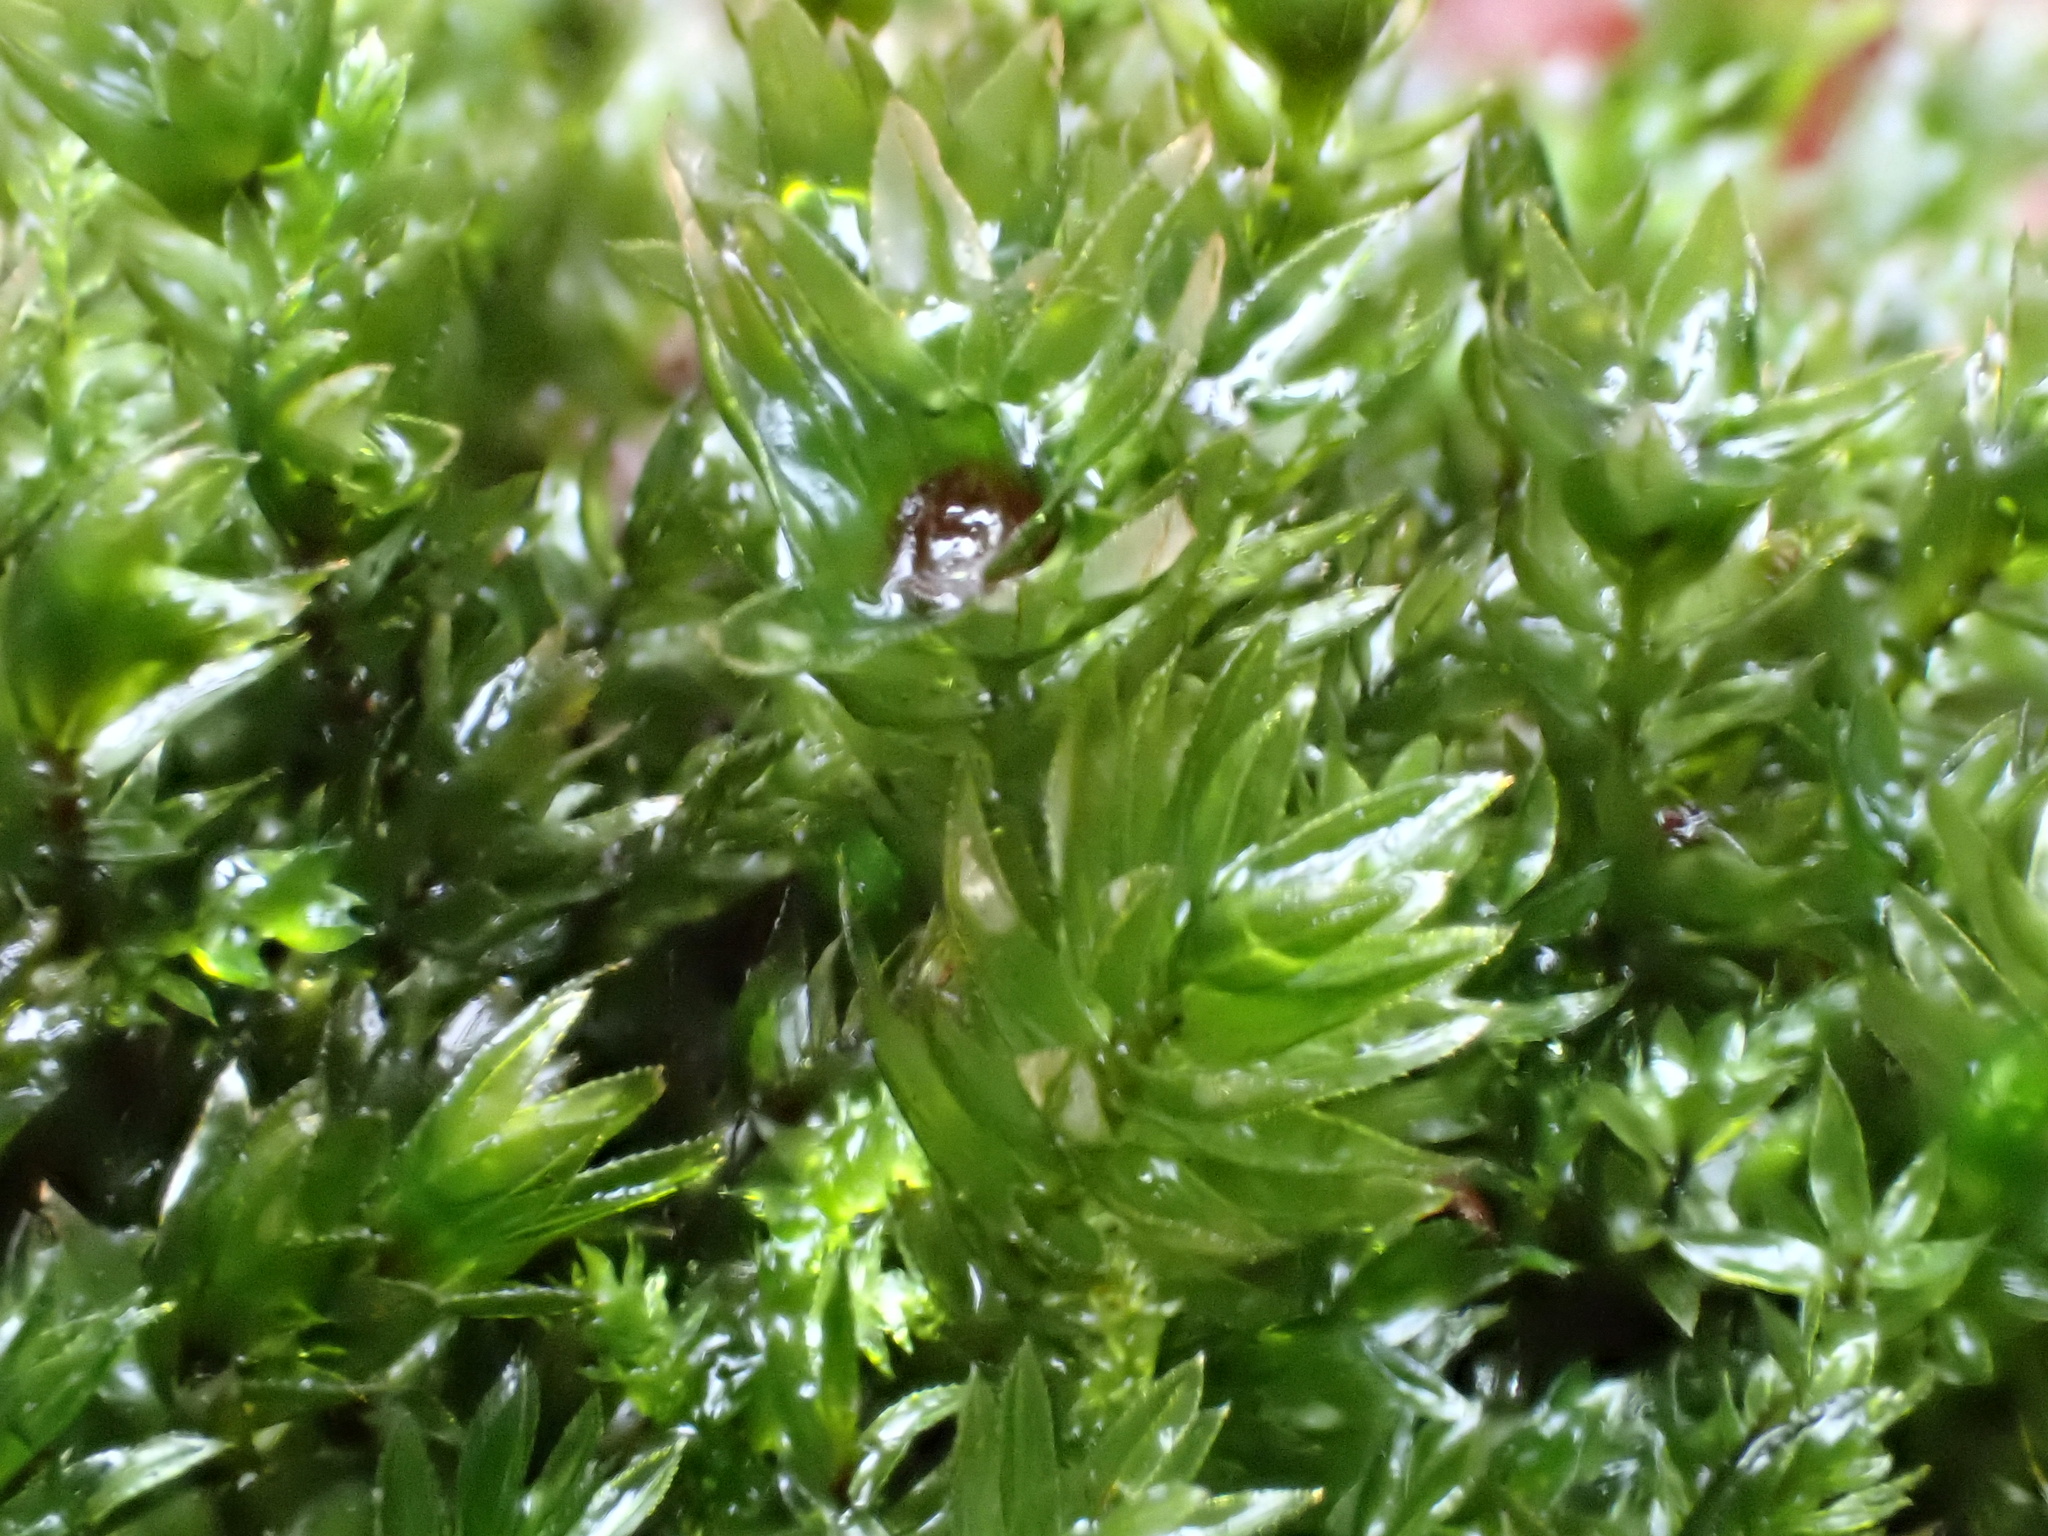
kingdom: Plantae
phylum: Bryophyta
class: Bryopsida
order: Bryales
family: Mniaceae
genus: Mnium
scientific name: Mnium hornum
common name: Swan's-neck leafy moss
